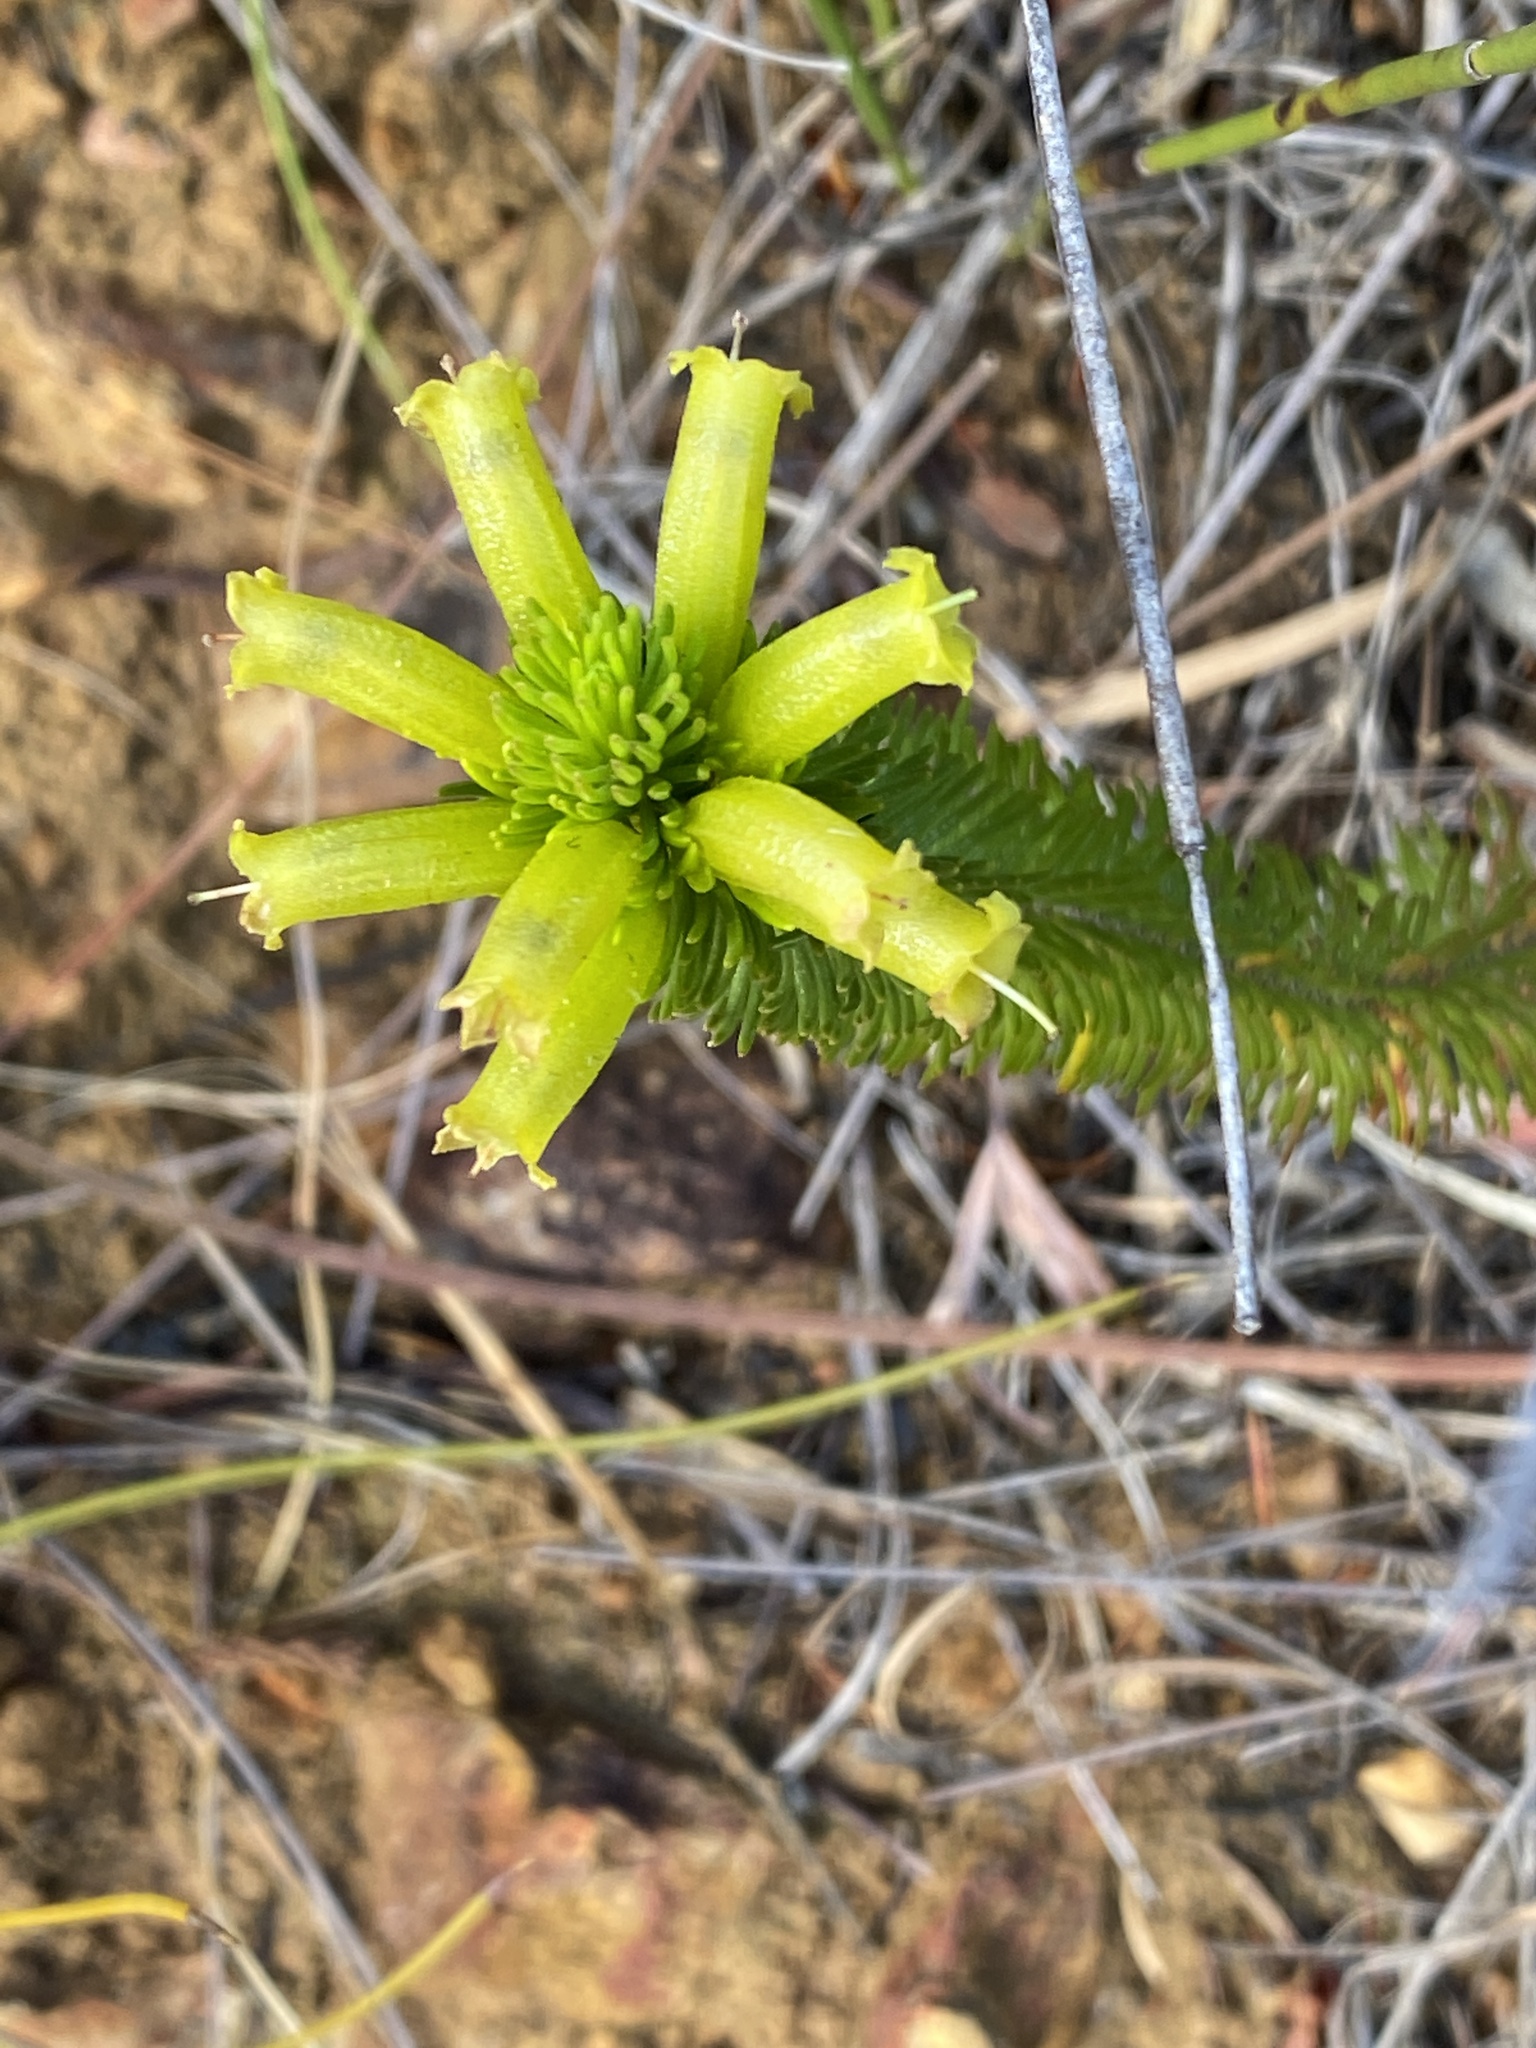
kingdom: Plantae
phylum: Tracheophyta
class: Magnoliopsida
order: Ericales
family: Ericaceae
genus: Erica
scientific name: Erica viscaria
